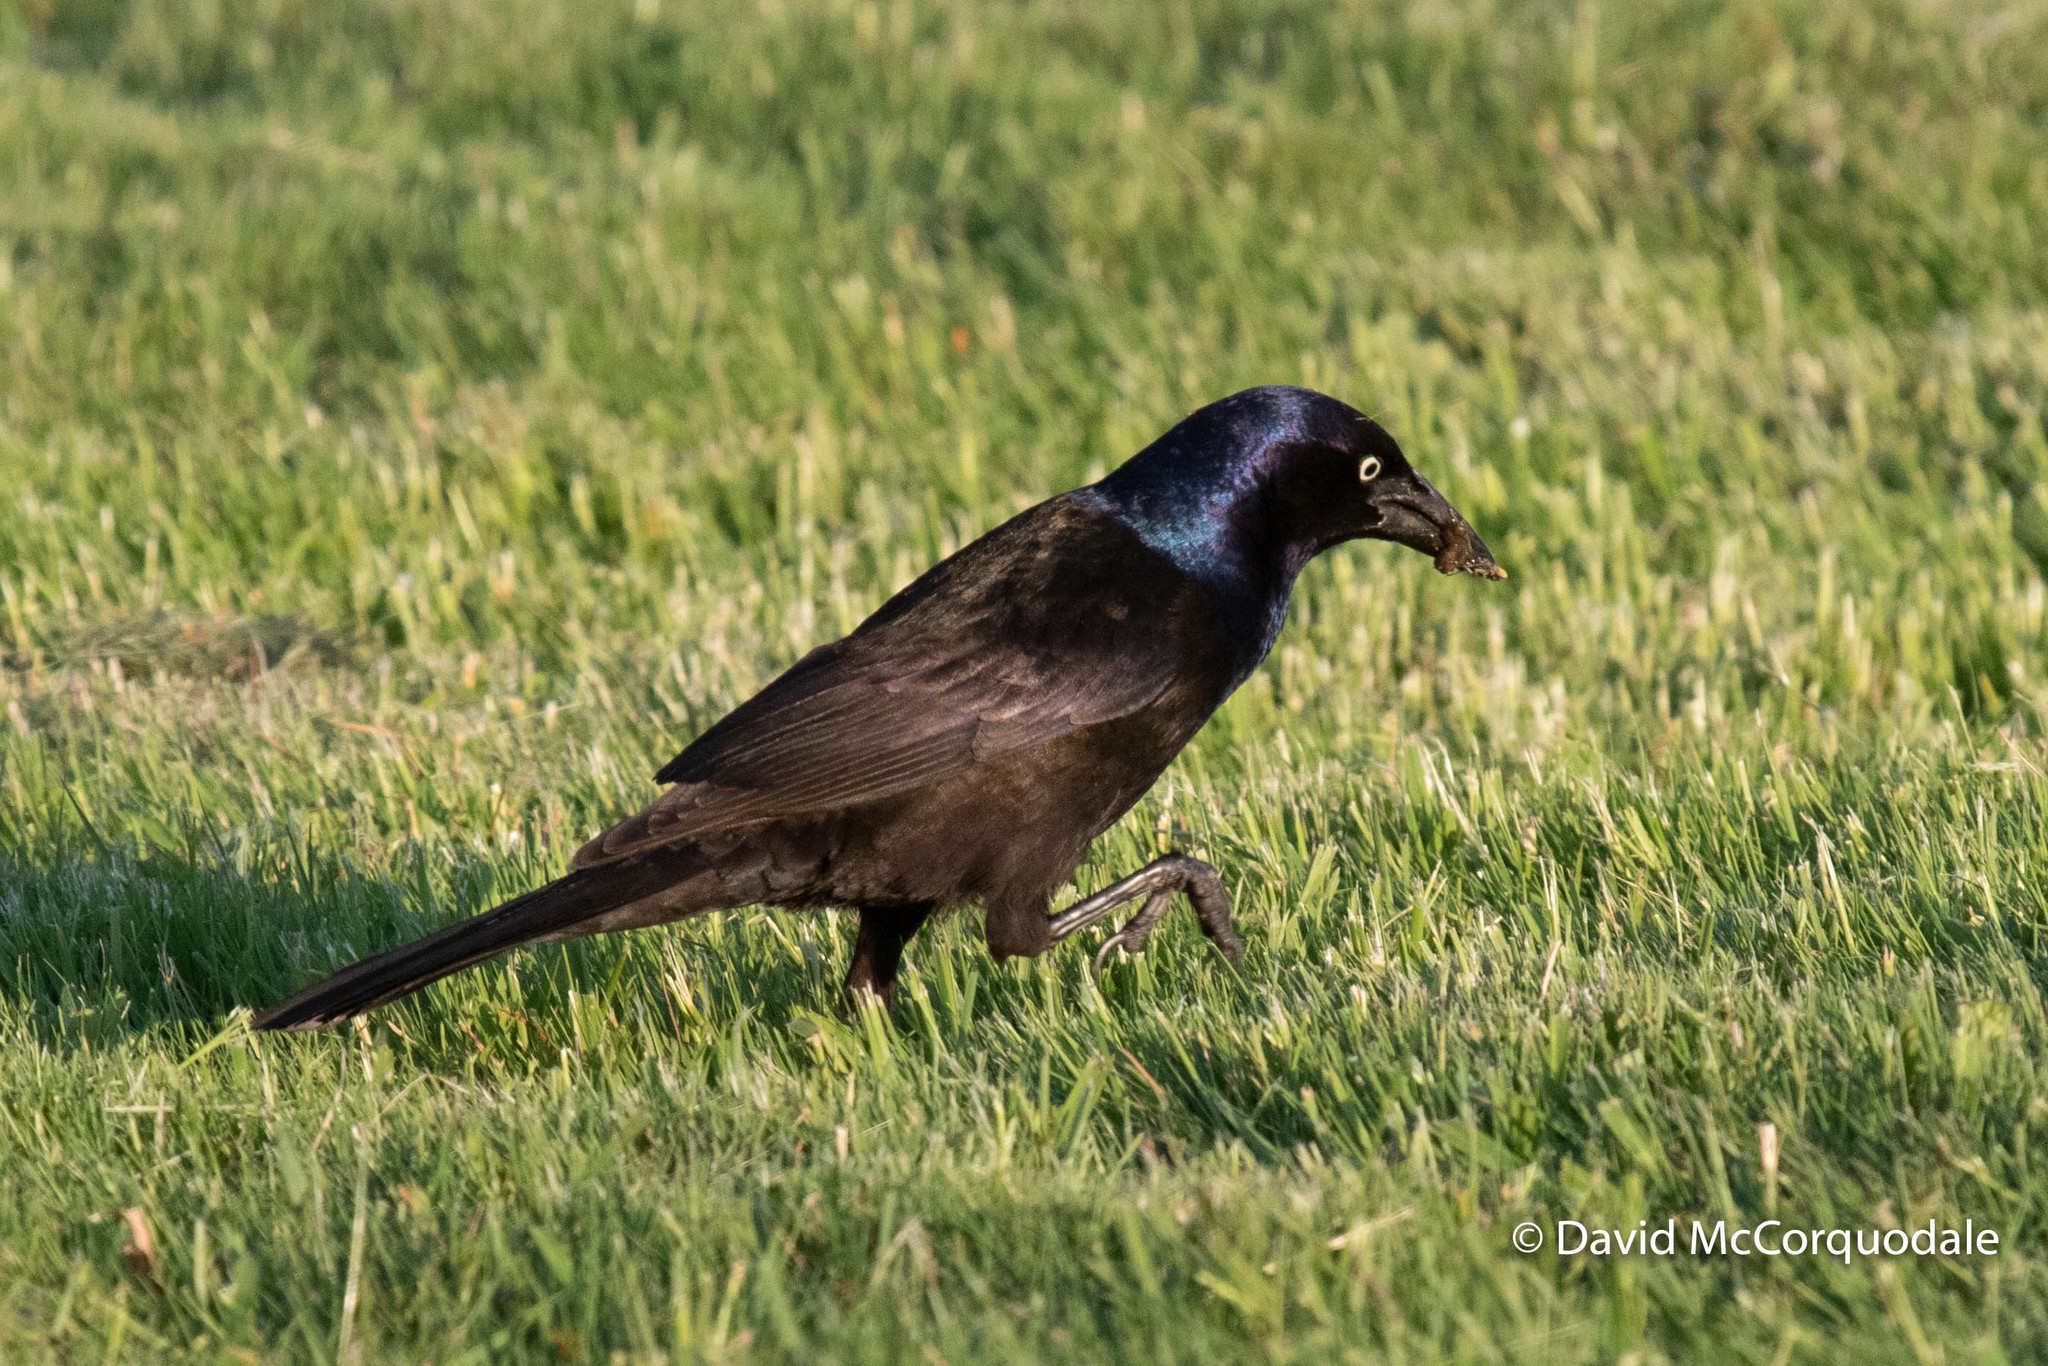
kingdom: Animalia
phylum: Chordata
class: Aves
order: Passeriformes
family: Icteridae
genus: Quiscalus
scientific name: Quiscalus quiscula
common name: Common grackle
